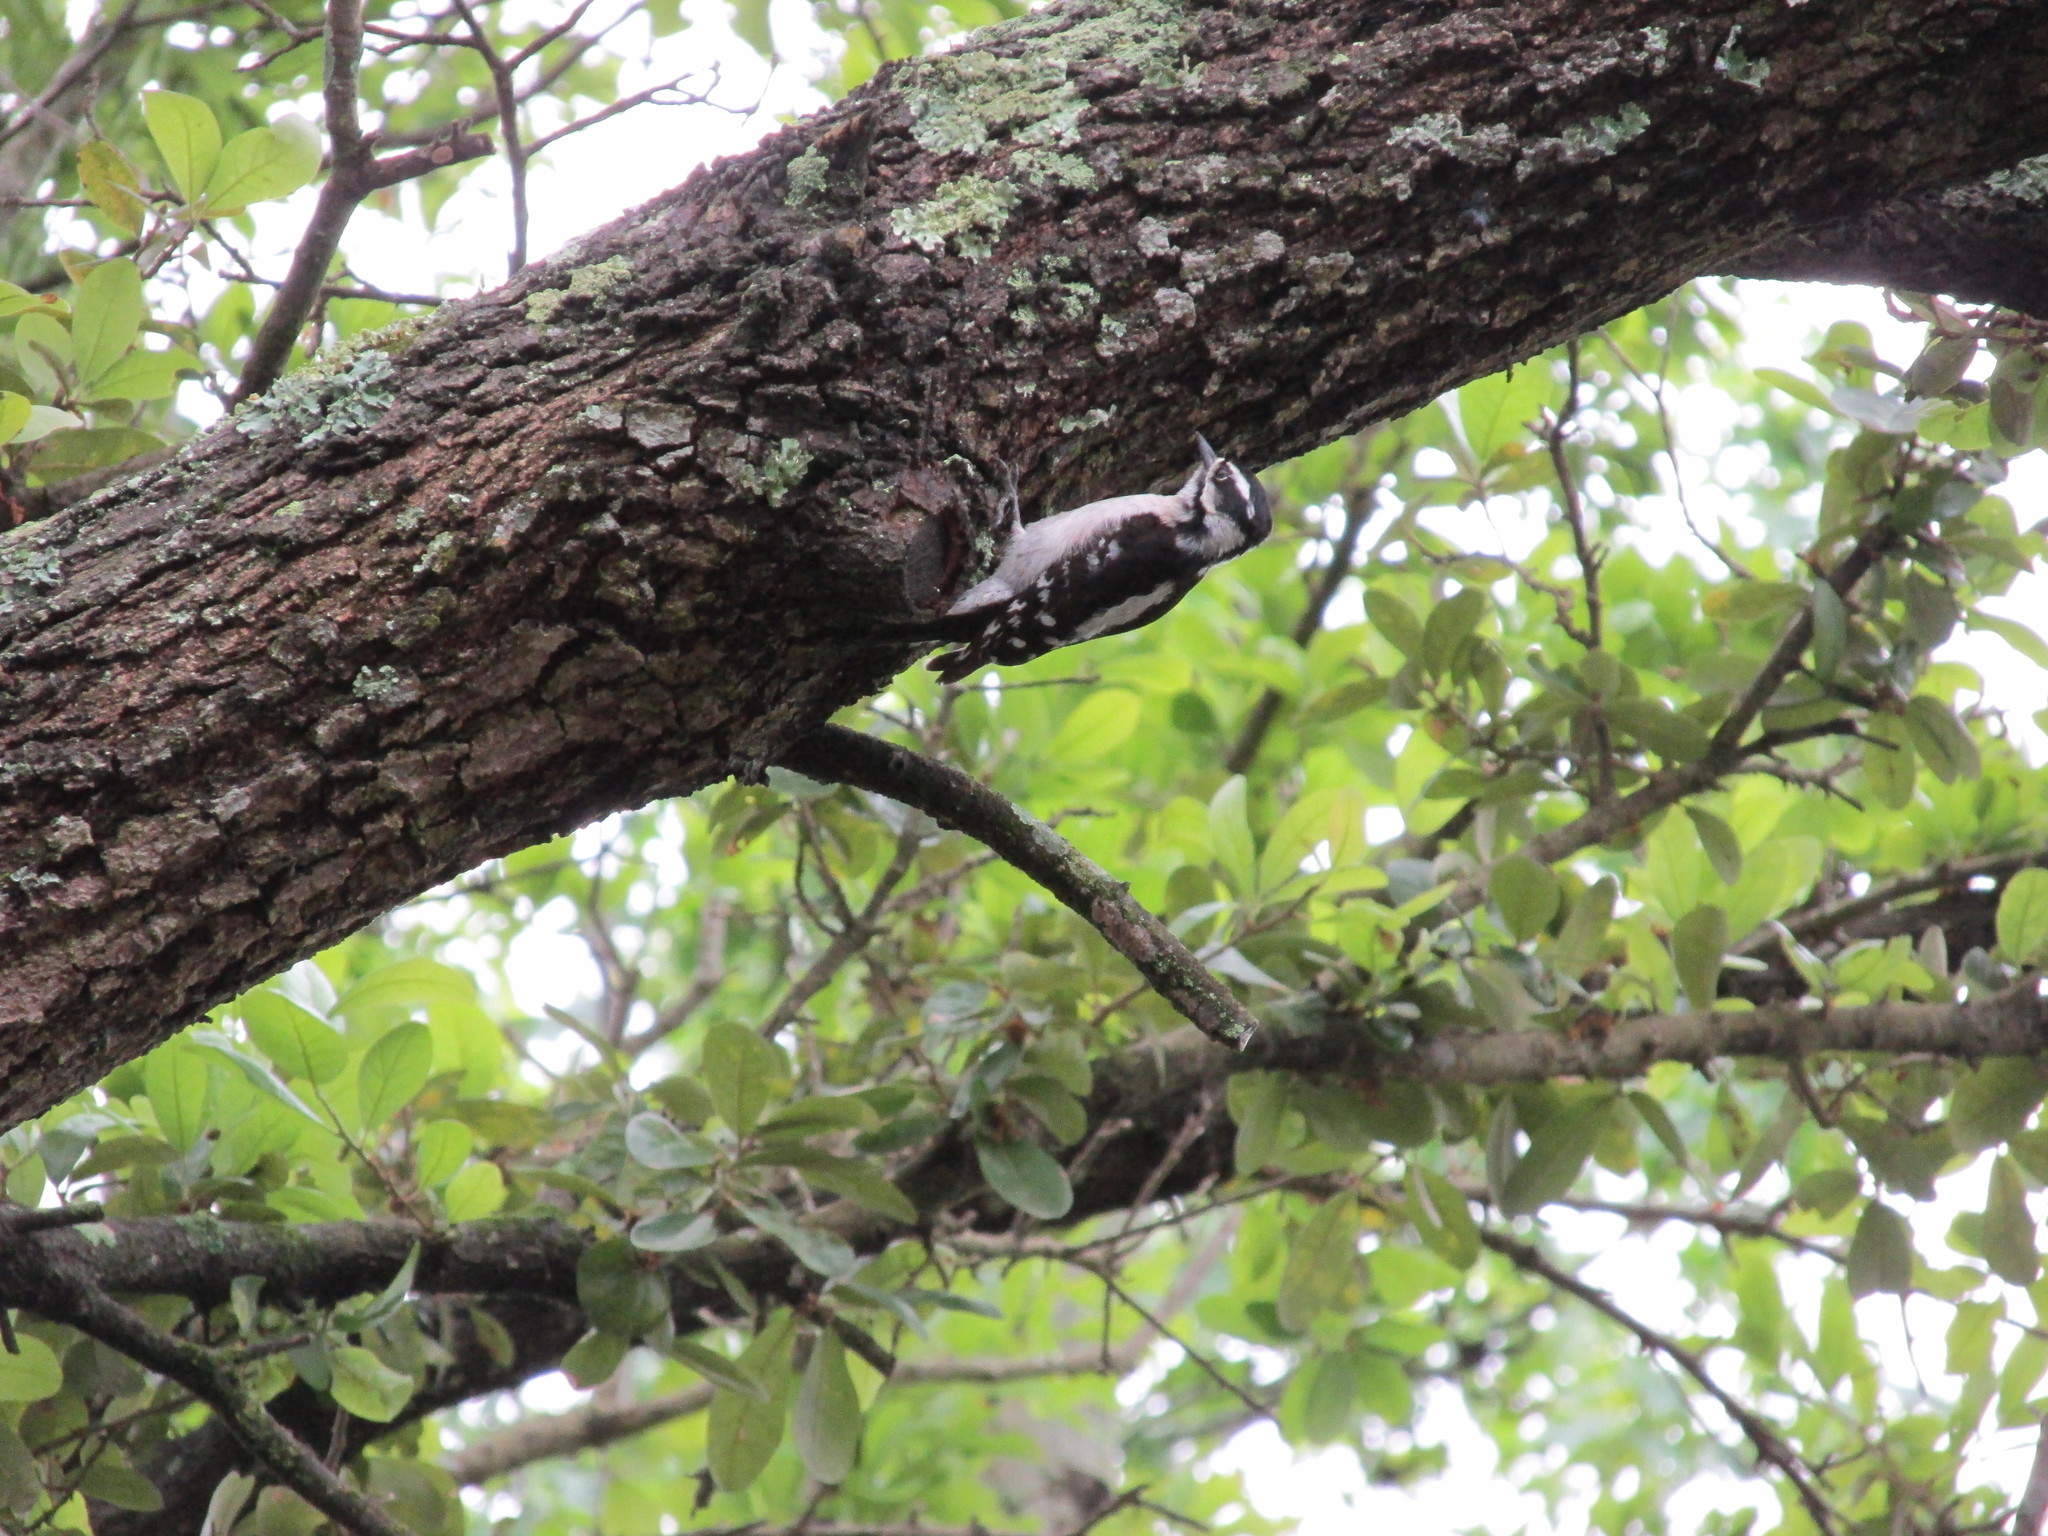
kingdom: Animalia
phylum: Chordata
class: Aves
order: Piciformes
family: Picidae
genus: Dryobates
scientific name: Dryobates pubescens
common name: Downy woodpecker
